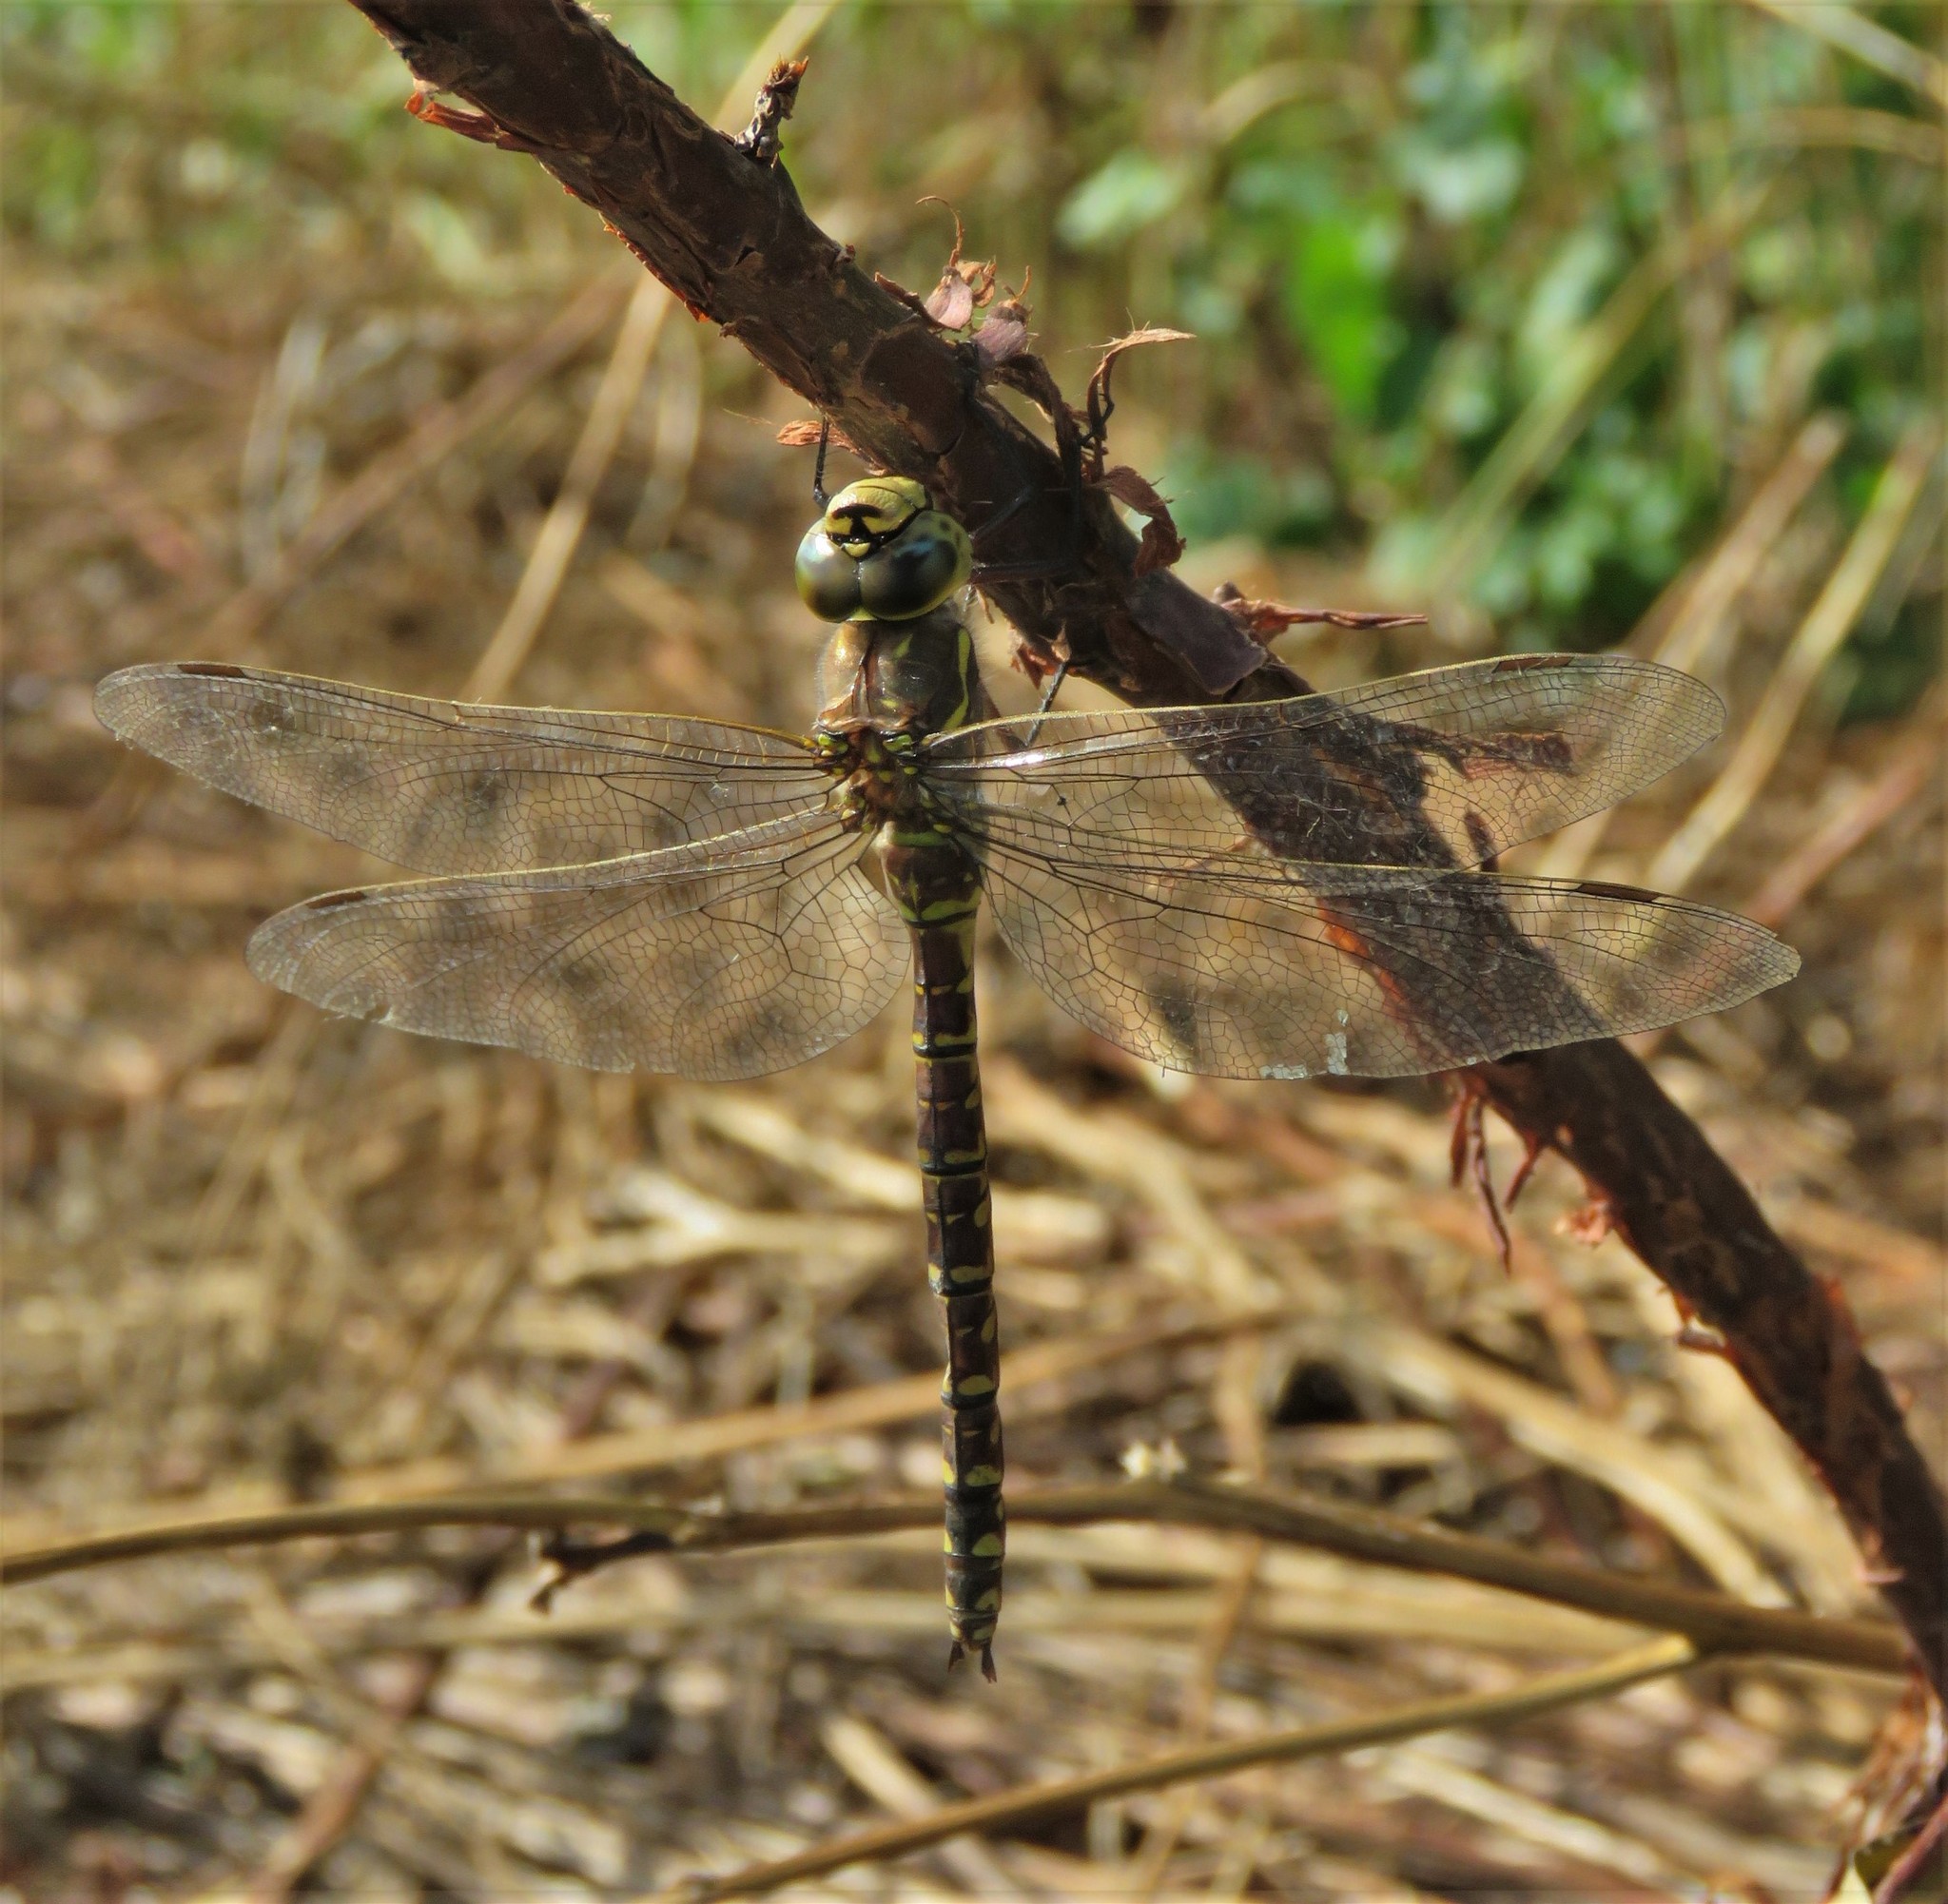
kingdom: Animalia
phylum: Arthropoda
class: Insecta
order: Odonata
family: Aeshnidae
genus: Aeshna
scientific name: Aeshna subarctica
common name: Subarctic darner
